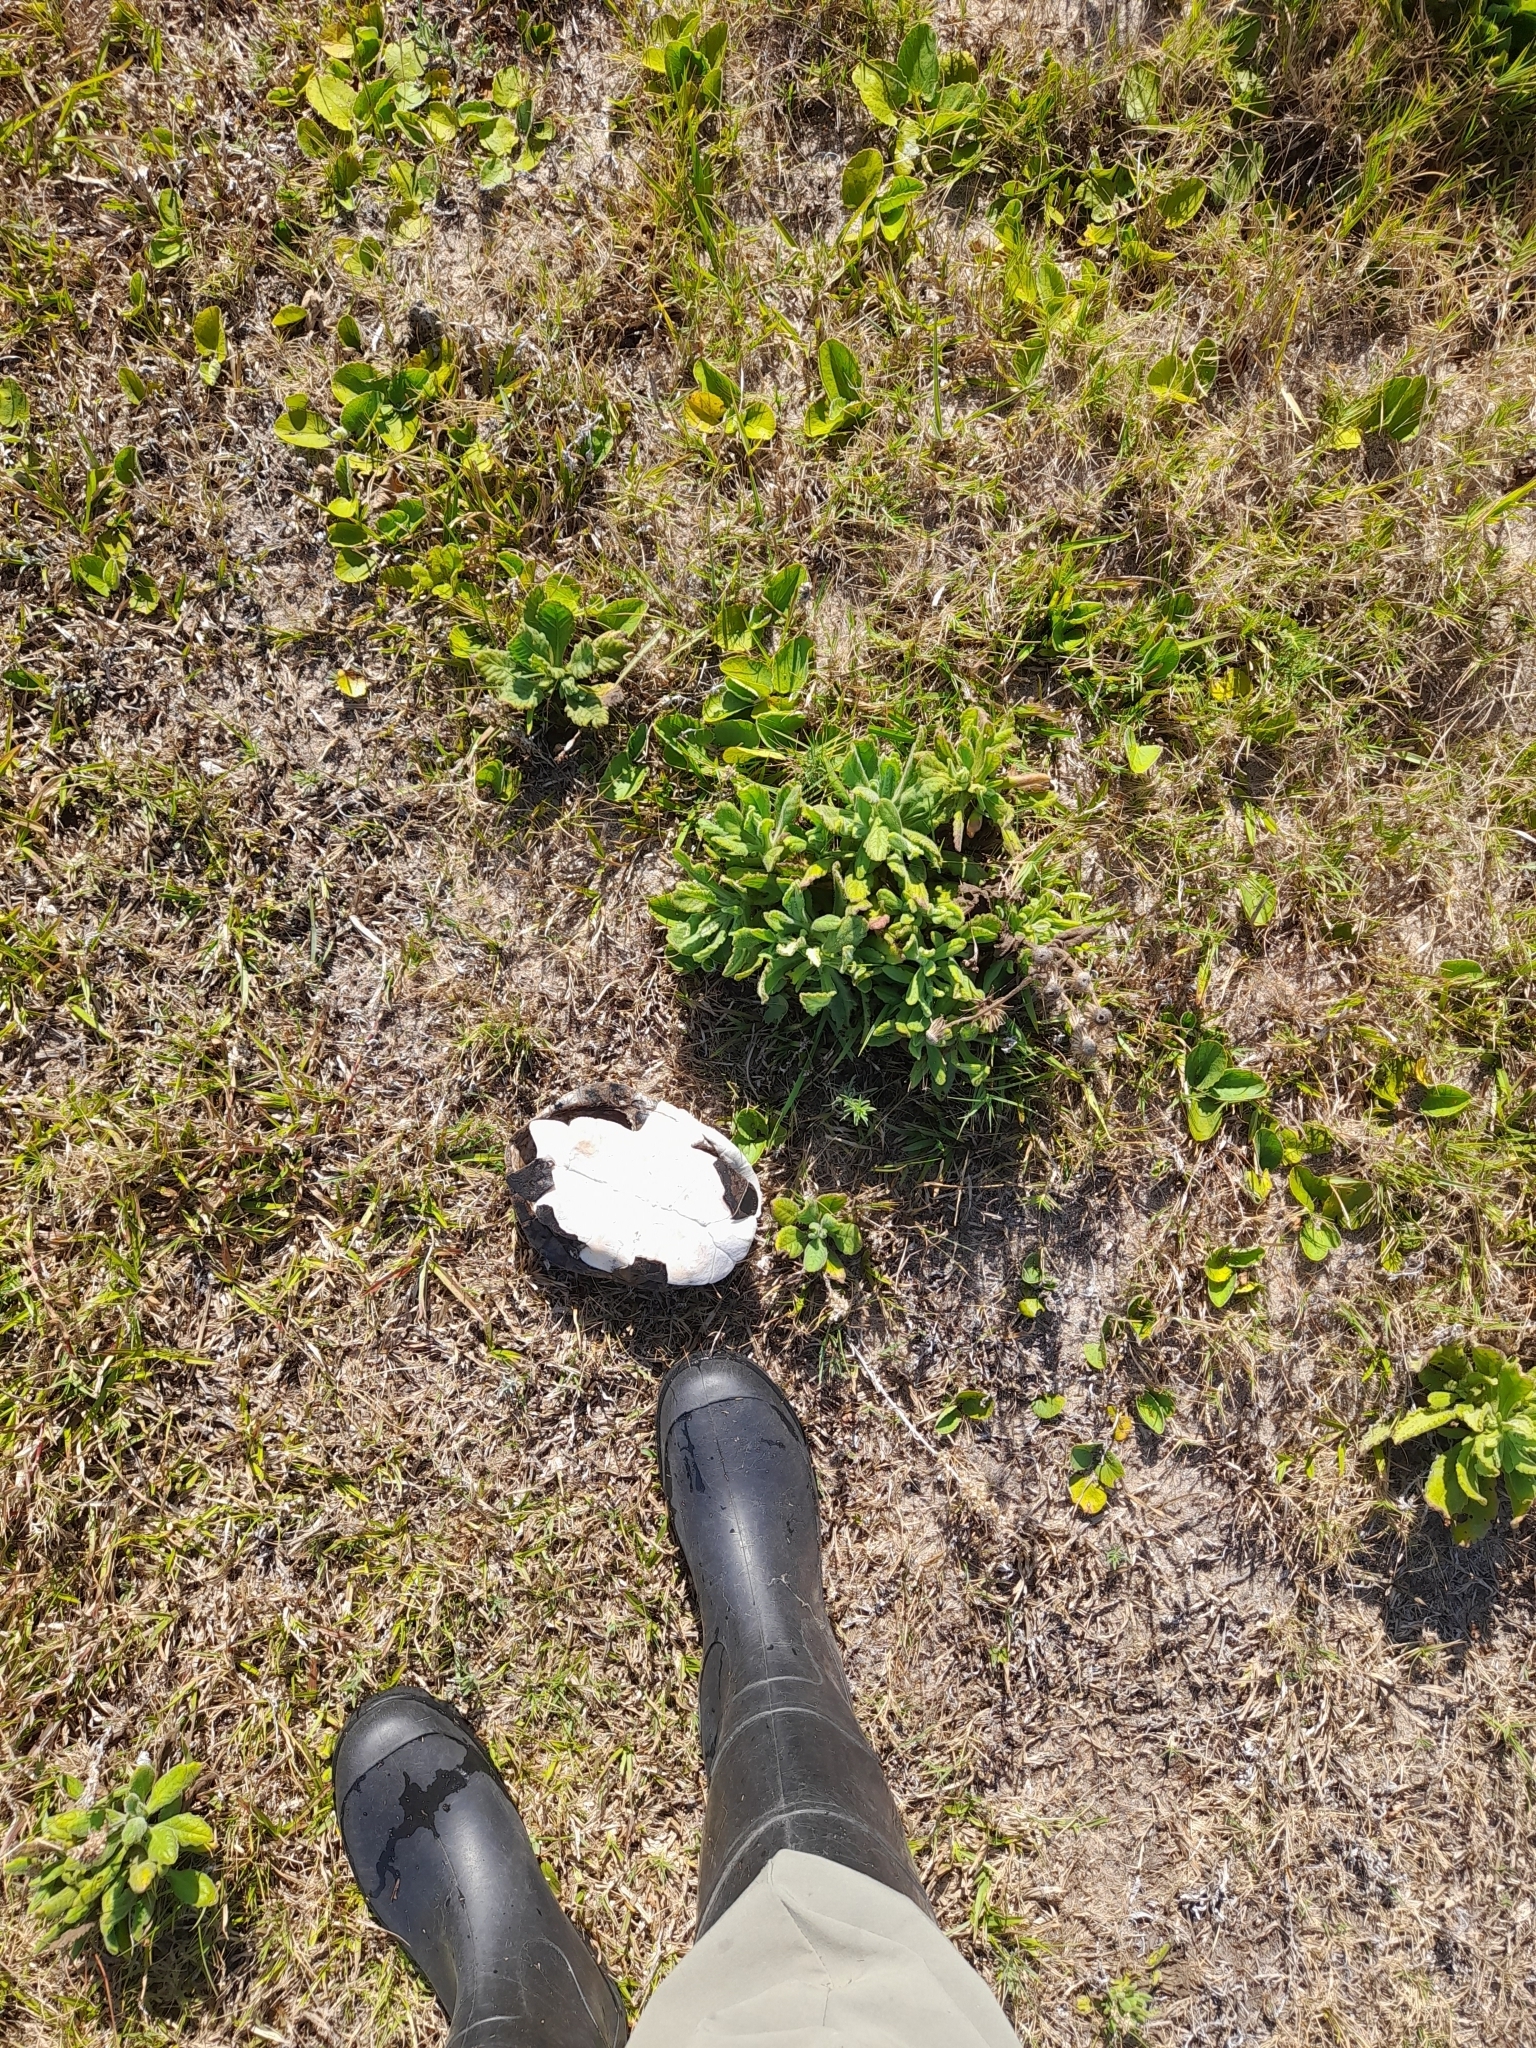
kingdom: Animalia
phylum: Chordata
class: Testudines
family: Chelidae
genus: Acanthochelys
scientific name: Acanthochelys spixii
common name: Black spine-neck swamp turtle
